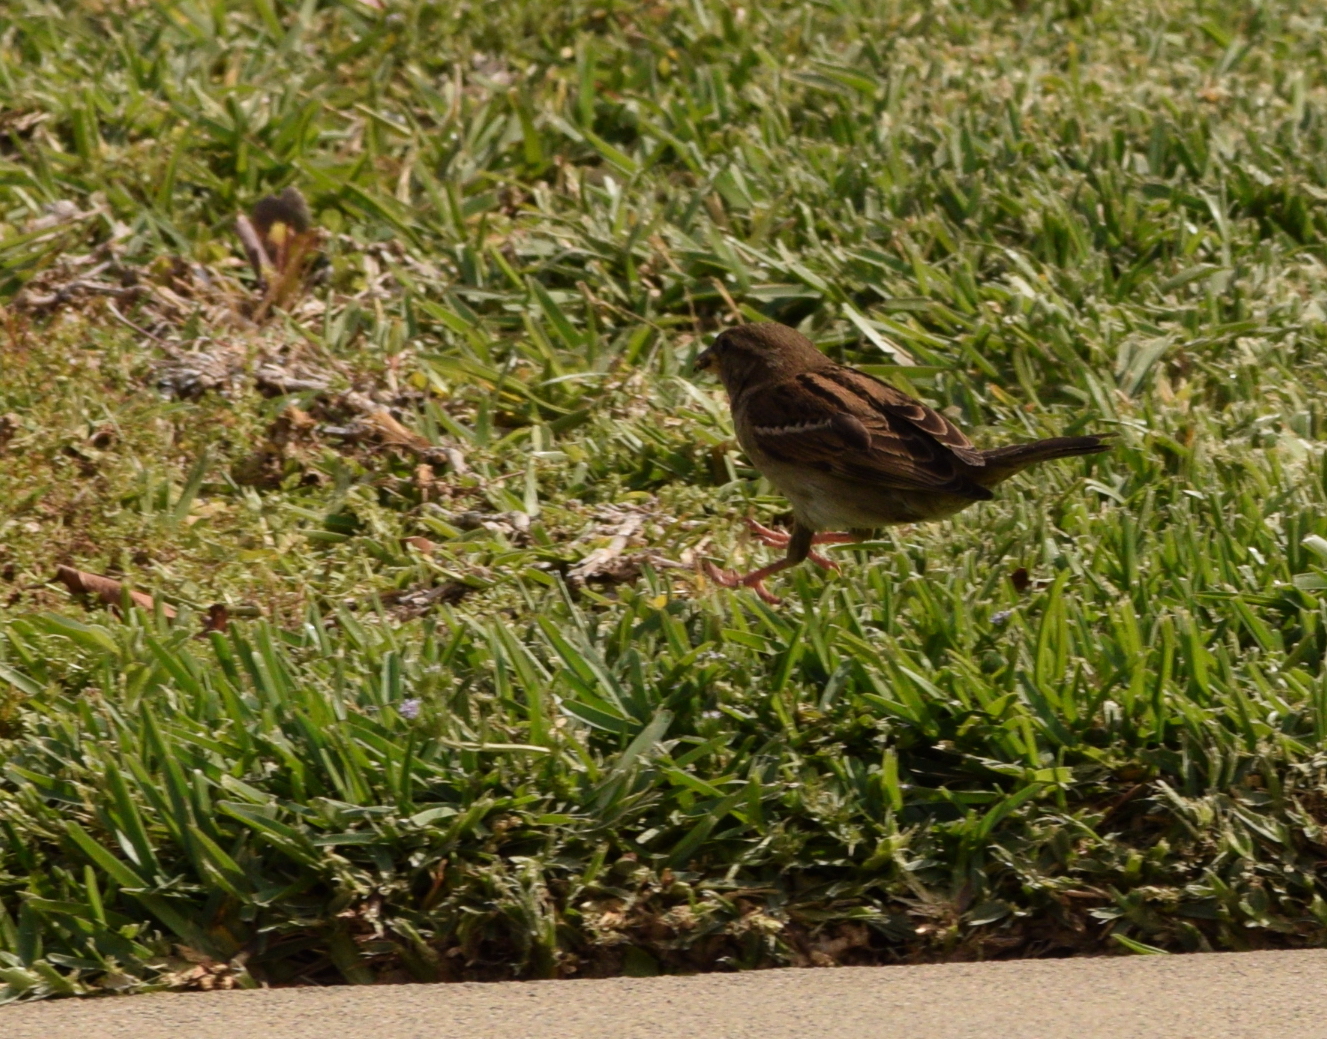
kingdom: Animalia
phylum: Chordata
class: Aves
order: Passeriformes
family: Passeridae
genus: Passer
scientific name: Passer domesticus
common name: House sparrow
